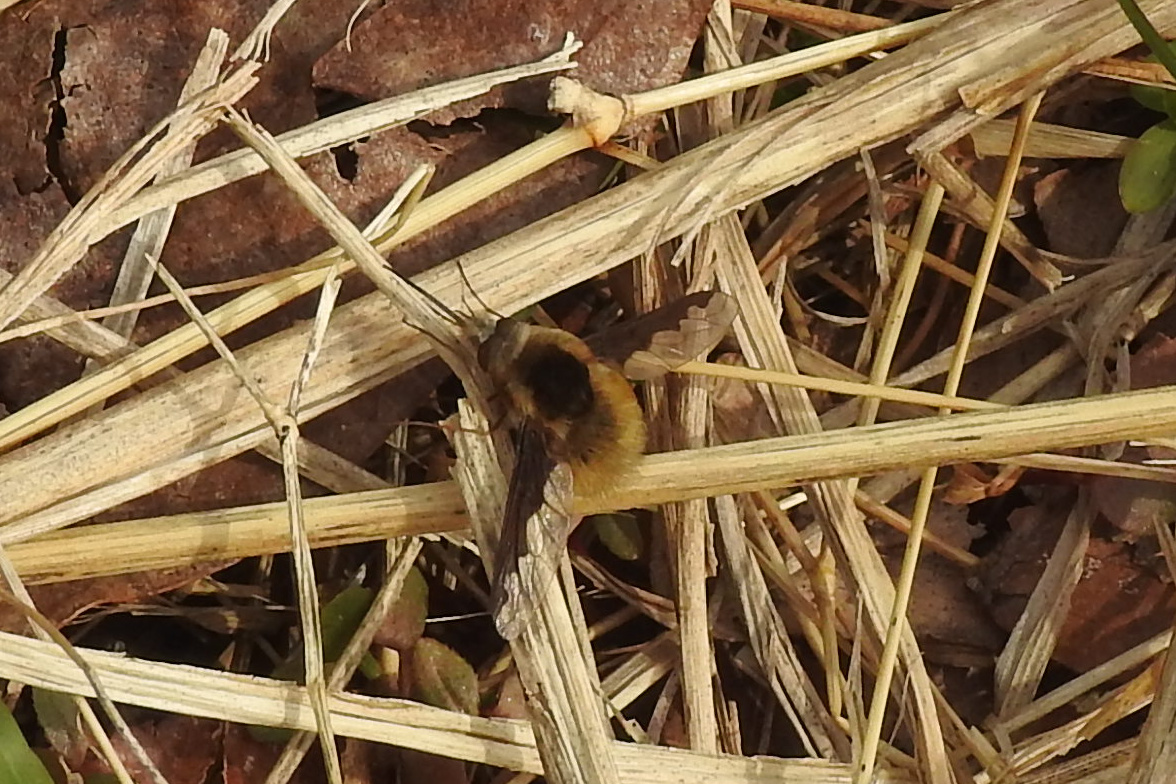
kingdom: Animalia
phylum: Arthropoda
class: Insecta
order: Diptera
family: Bombyliidae
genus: Bombylius
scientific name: Bombylius major
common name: Bee fly
